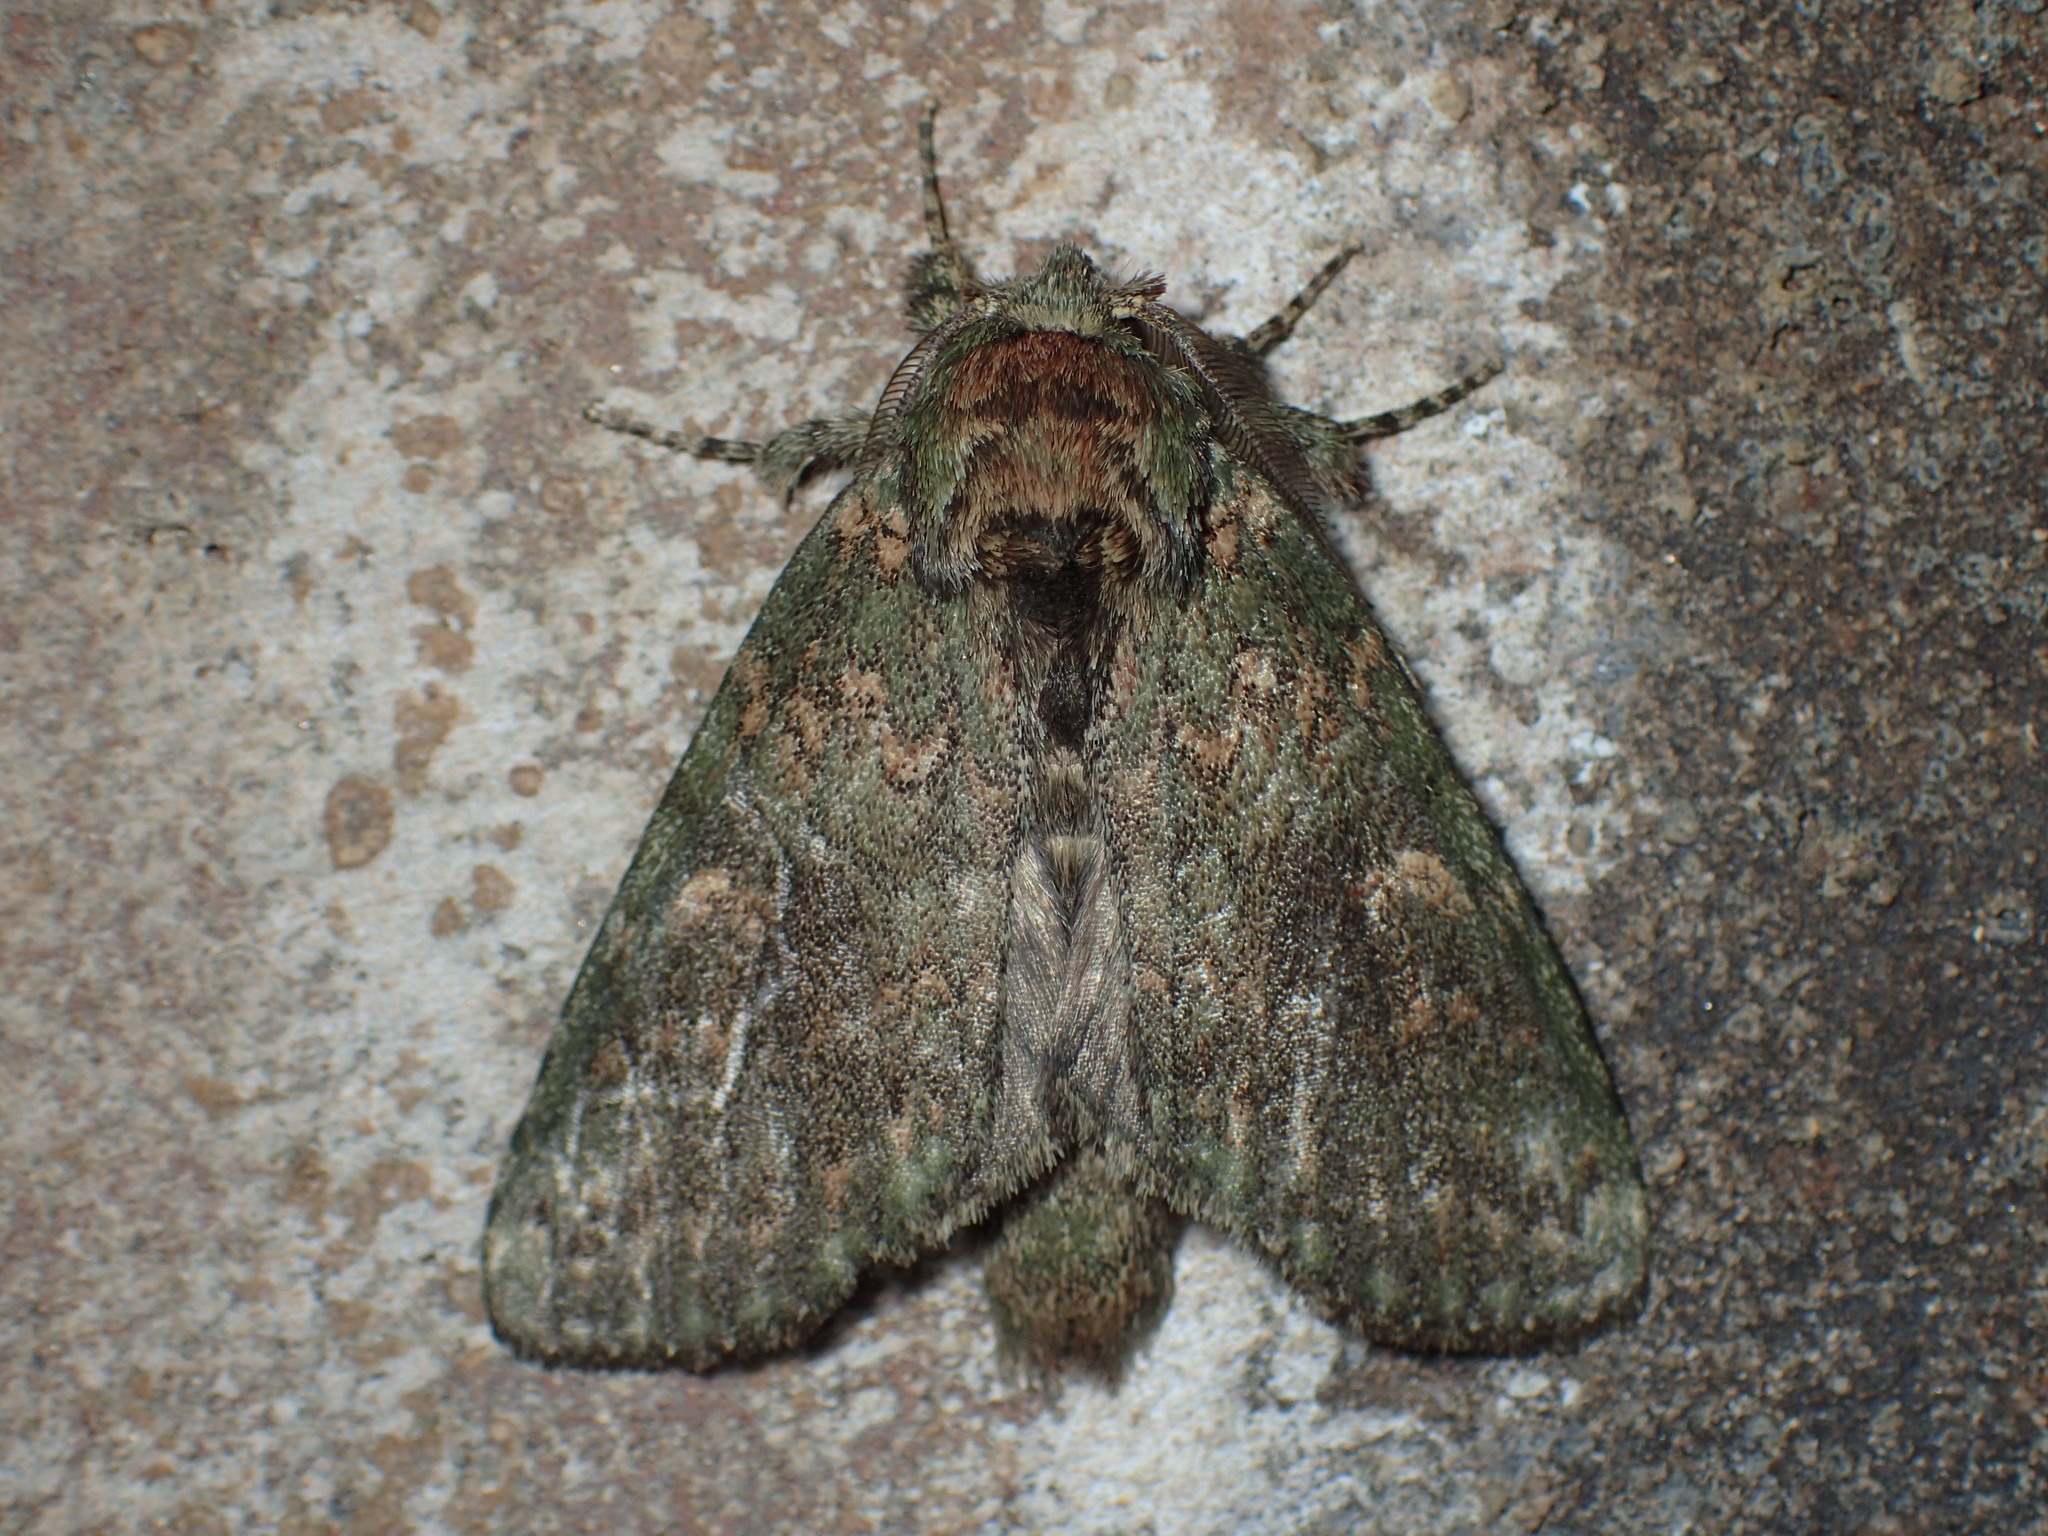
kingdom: Animalia
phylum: Arthropoda
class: Insecta
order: Lepidoptera
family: Notodontidae
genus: Disphragis
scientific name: Disphragis Cecrita biundata
